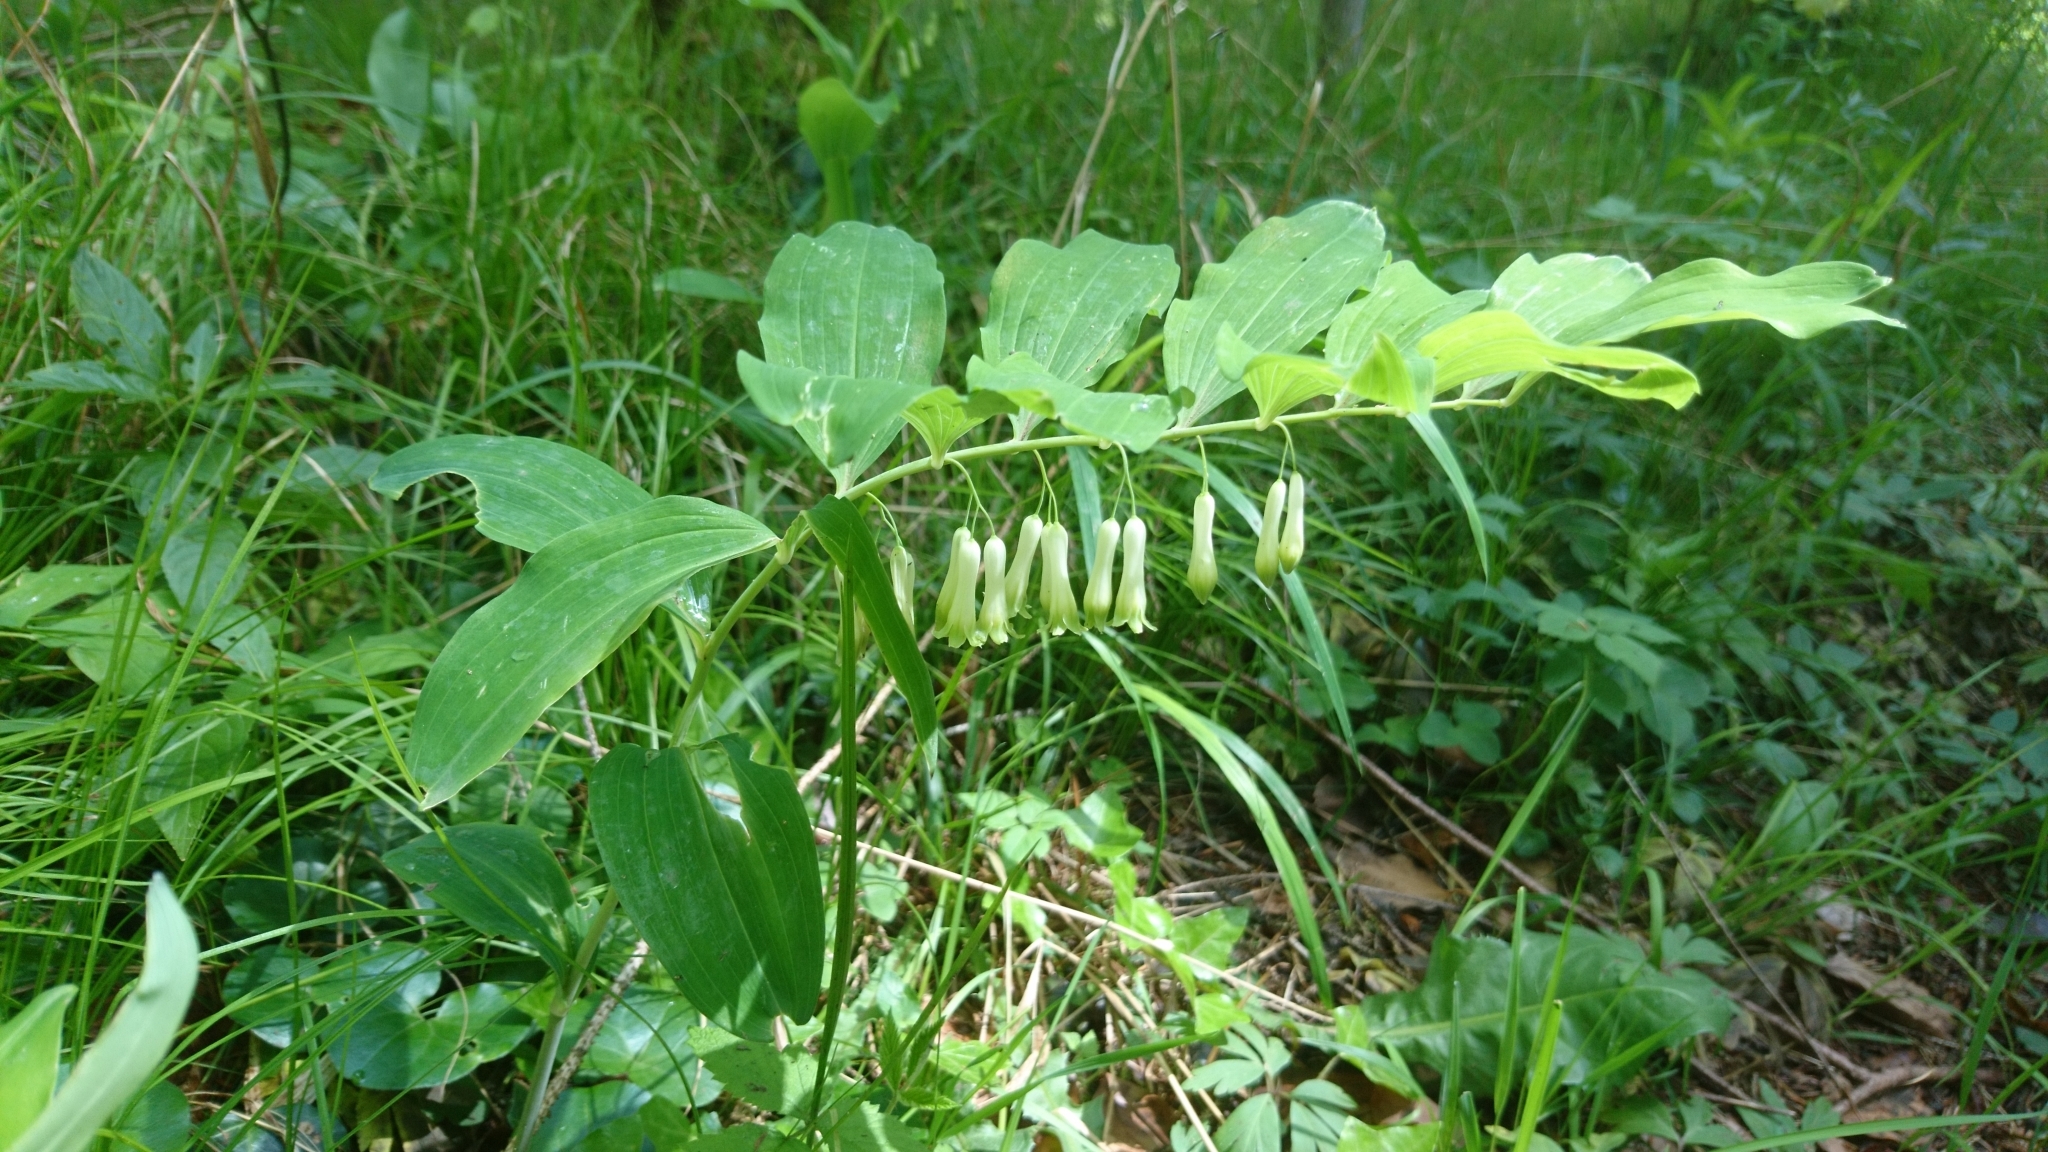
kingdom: Plantae
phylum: Tracheophyta
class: Liliopsida
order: Asparagales
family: Asparagaceae
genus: Polygonatum
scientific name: Polygonatum multiflorum
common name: Solomon's-seal
